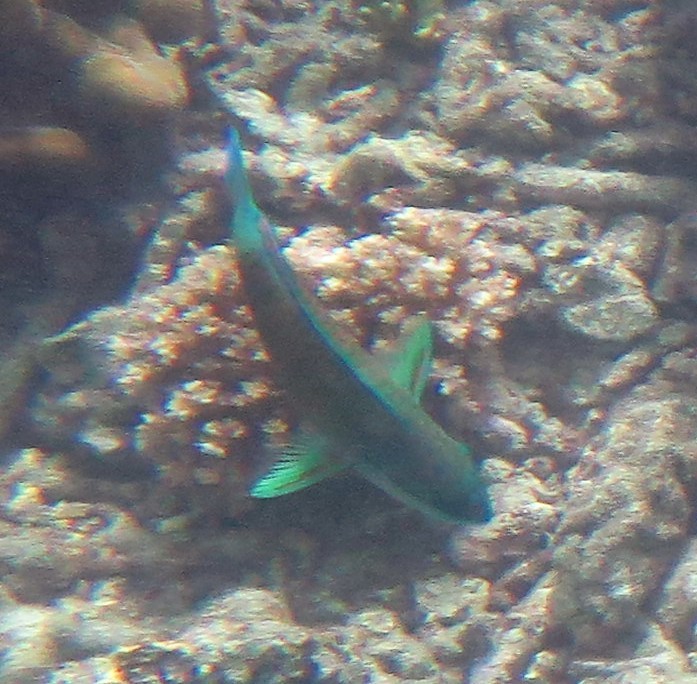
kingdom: Animalia
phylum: Chordata
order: Perciformes
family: Scaridae
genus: Chlorurus
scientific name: Chlorurus spilurus
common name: Bullethead parrotfish
